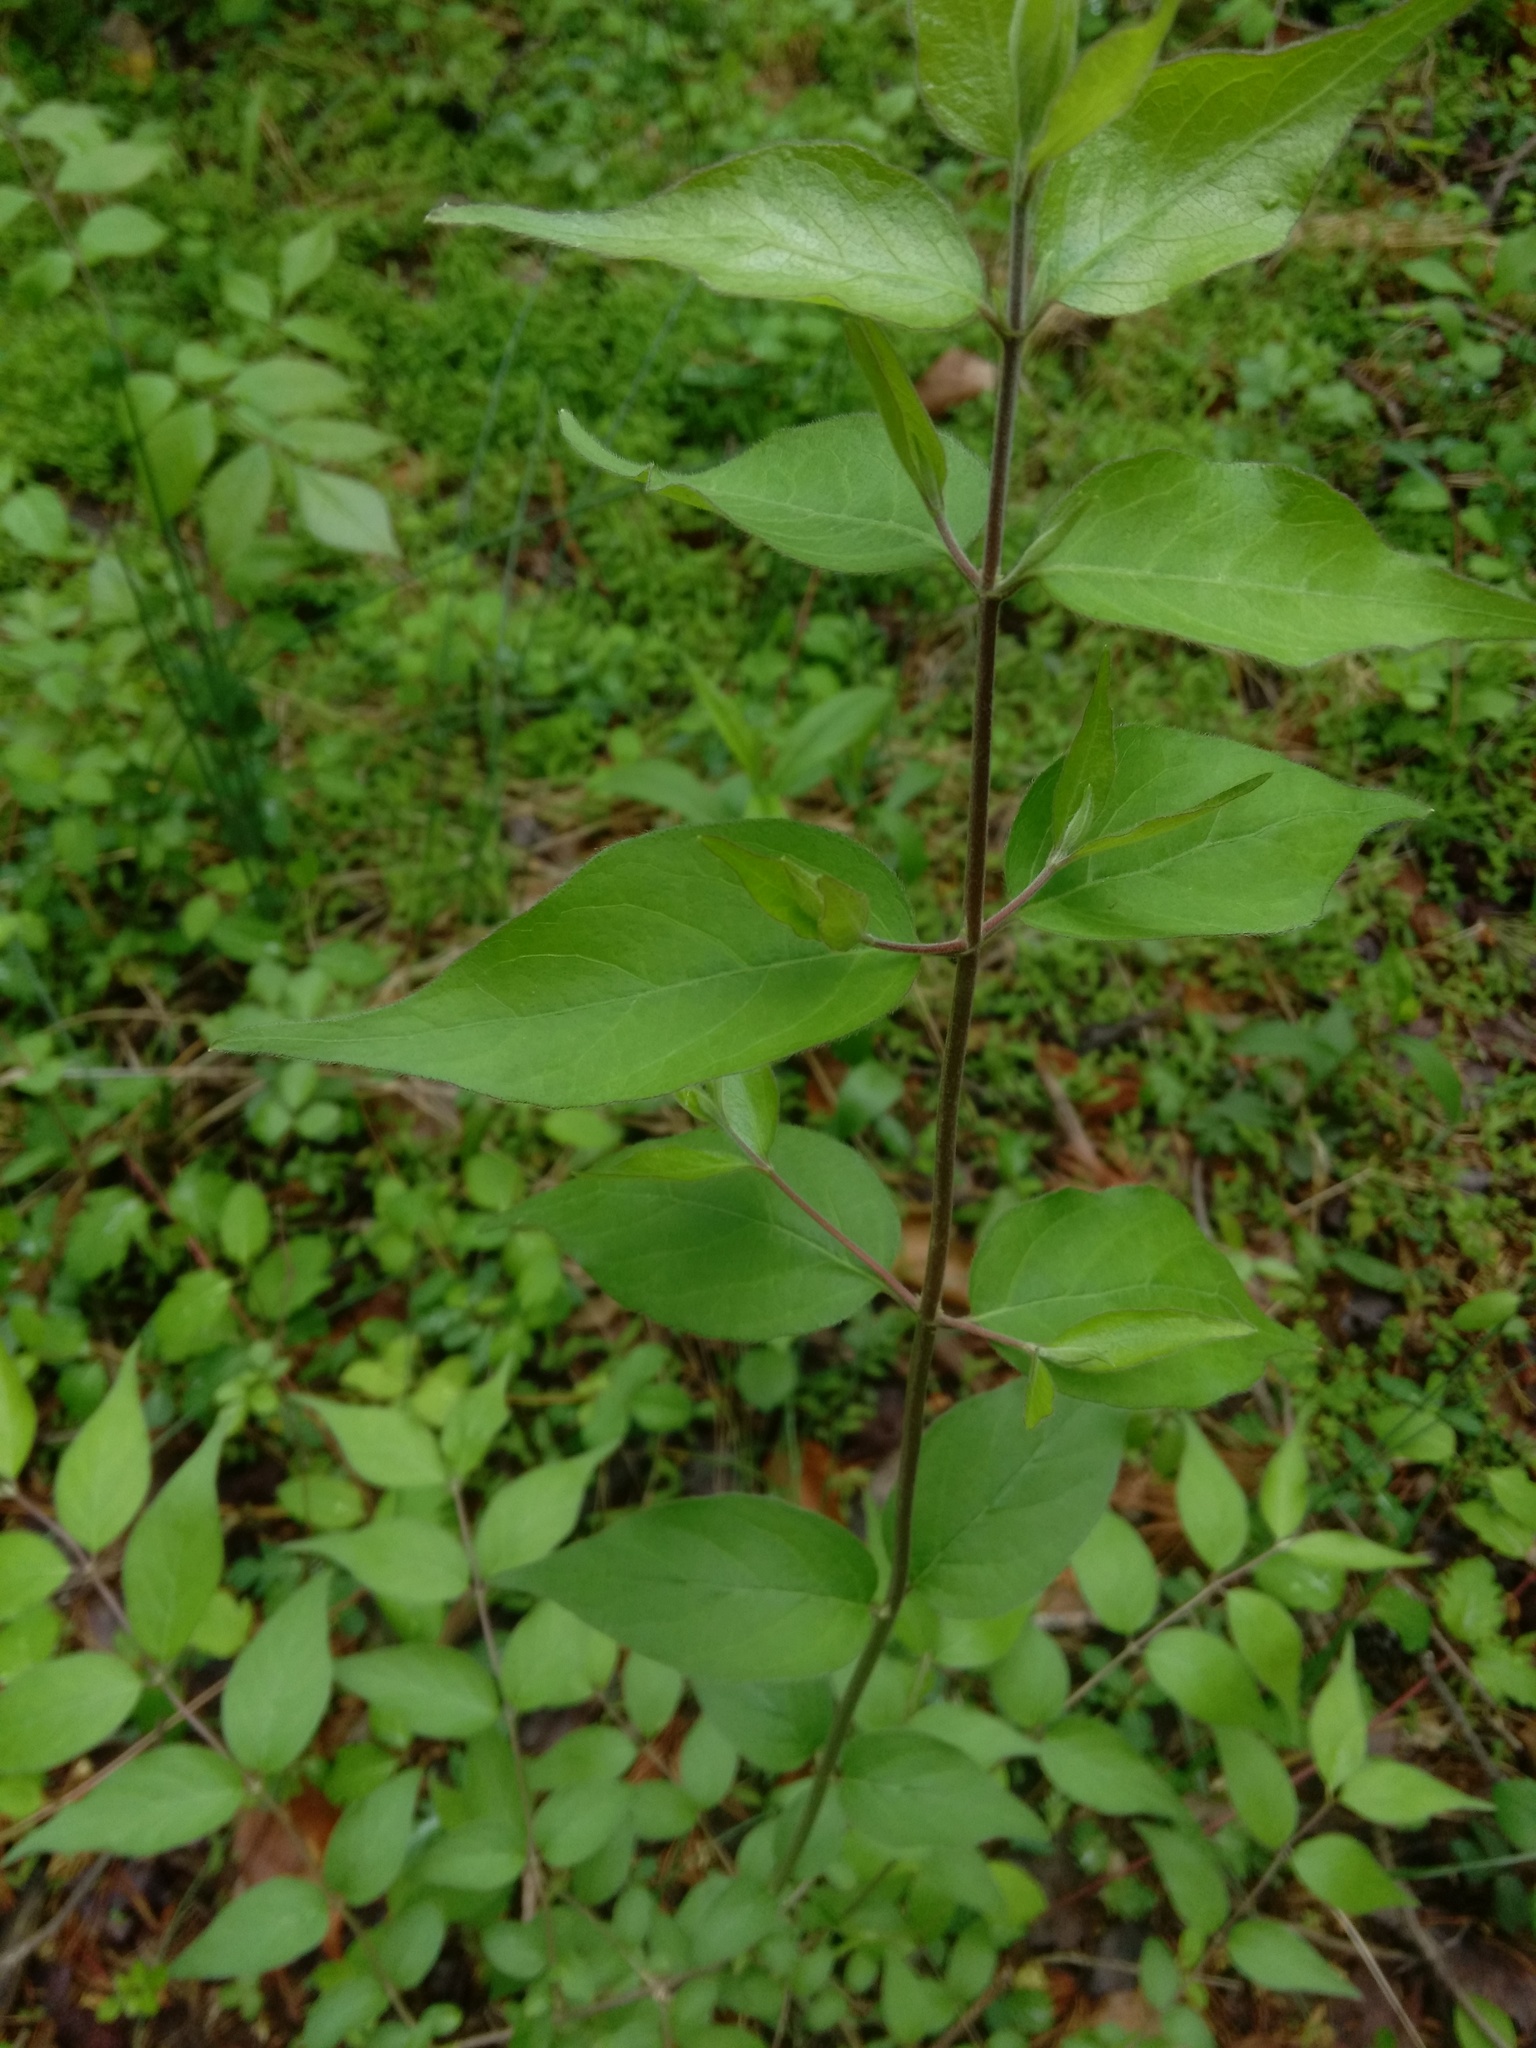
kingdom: Plantae
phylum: Tracheophyta
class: Magnoliopsida
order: Dipsacales
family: Caprifoliaceae
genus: Lonicera
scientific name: Lonicera maackii
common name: Amur honeysuckle
